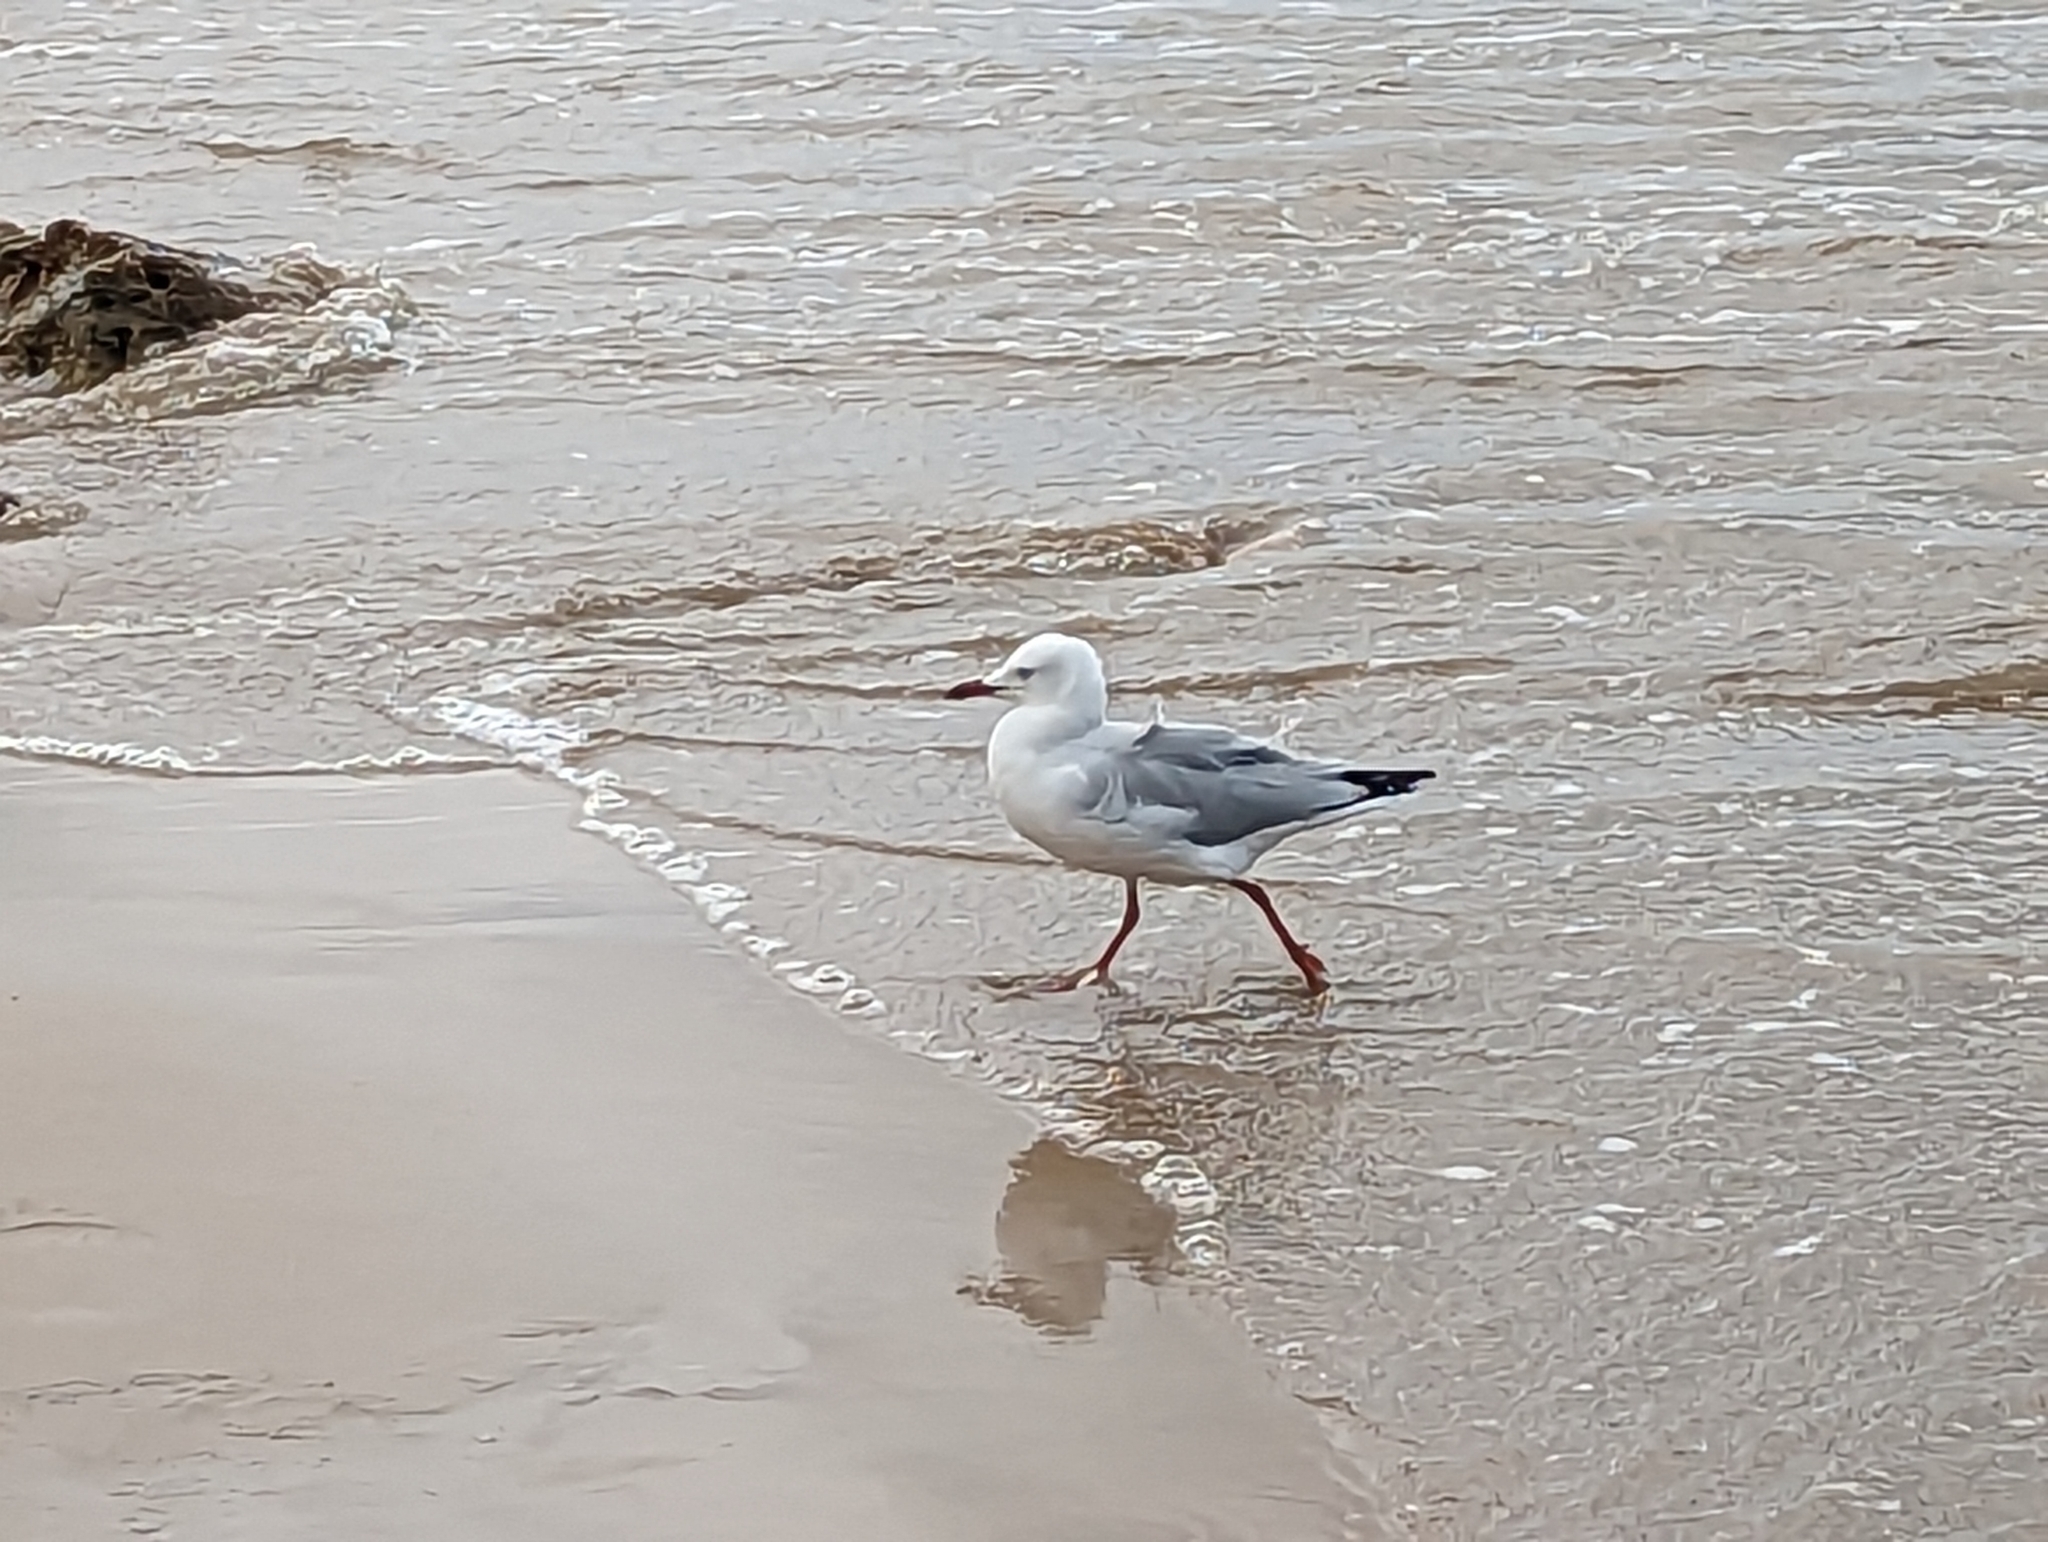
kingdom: Animalia
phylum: Chordata
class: Aves
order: Charadriiformes
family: Laridae
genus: Chroicocephalus
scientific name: Chroicocephalus novaehollandiae
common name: Silver gull
